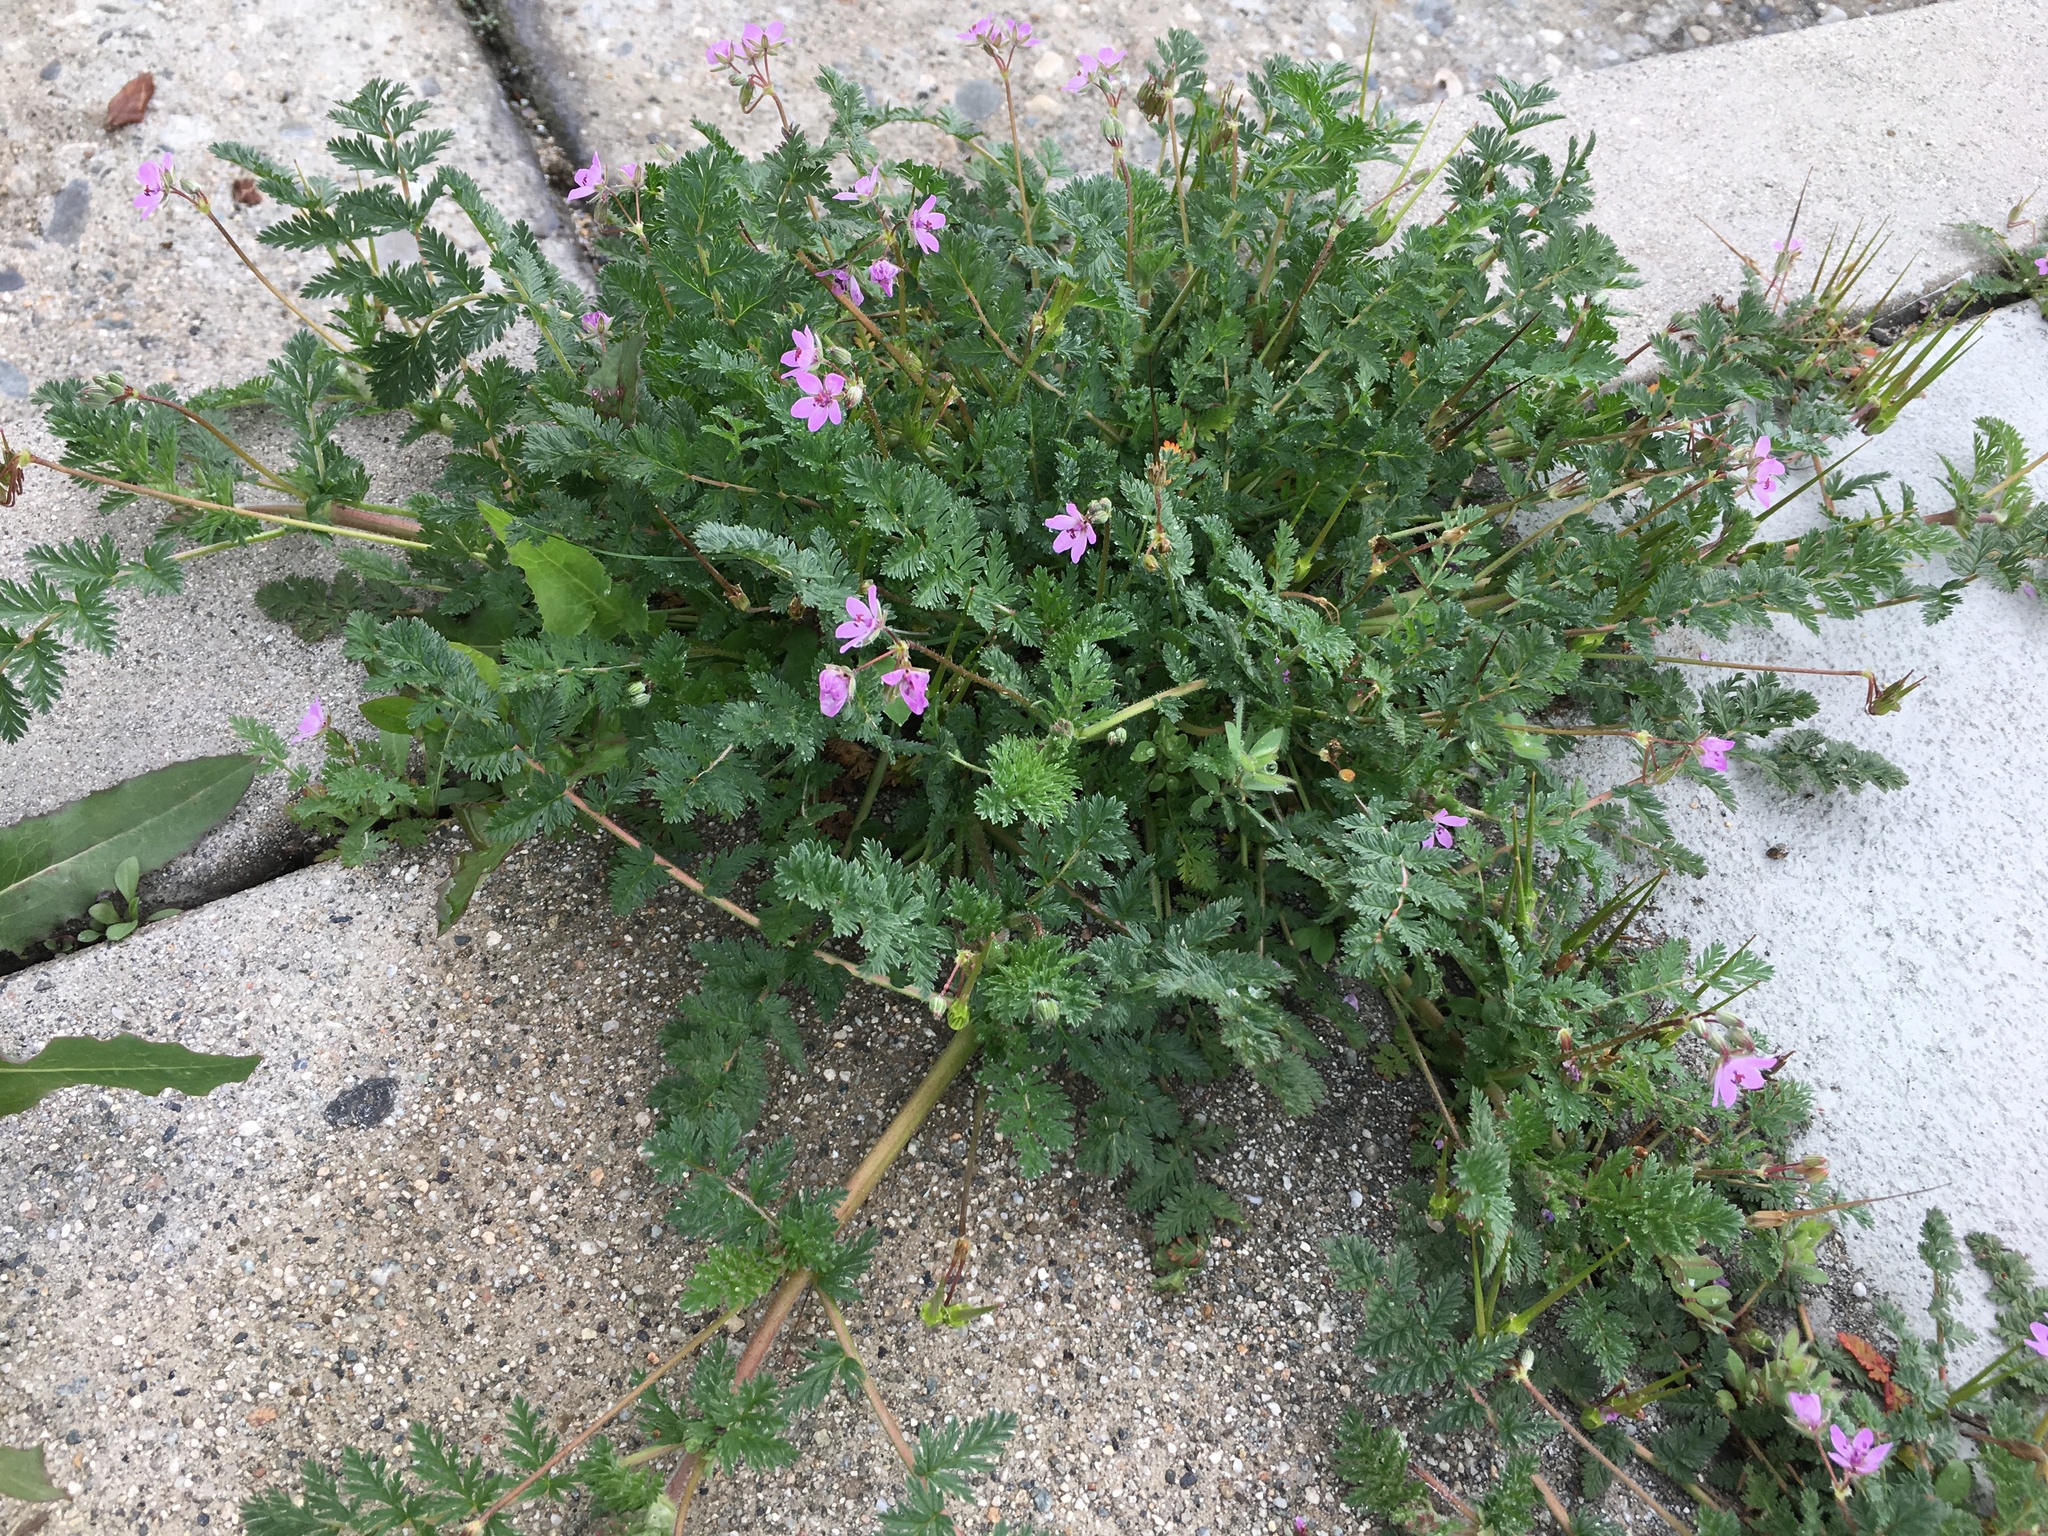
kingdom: Plantae
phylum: Tracheophyta
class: Magnoliopsida
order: Geraniales
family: Geraniaceae
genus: Erodium
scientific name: Erodium cicutarium
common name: Common stork's-bill
